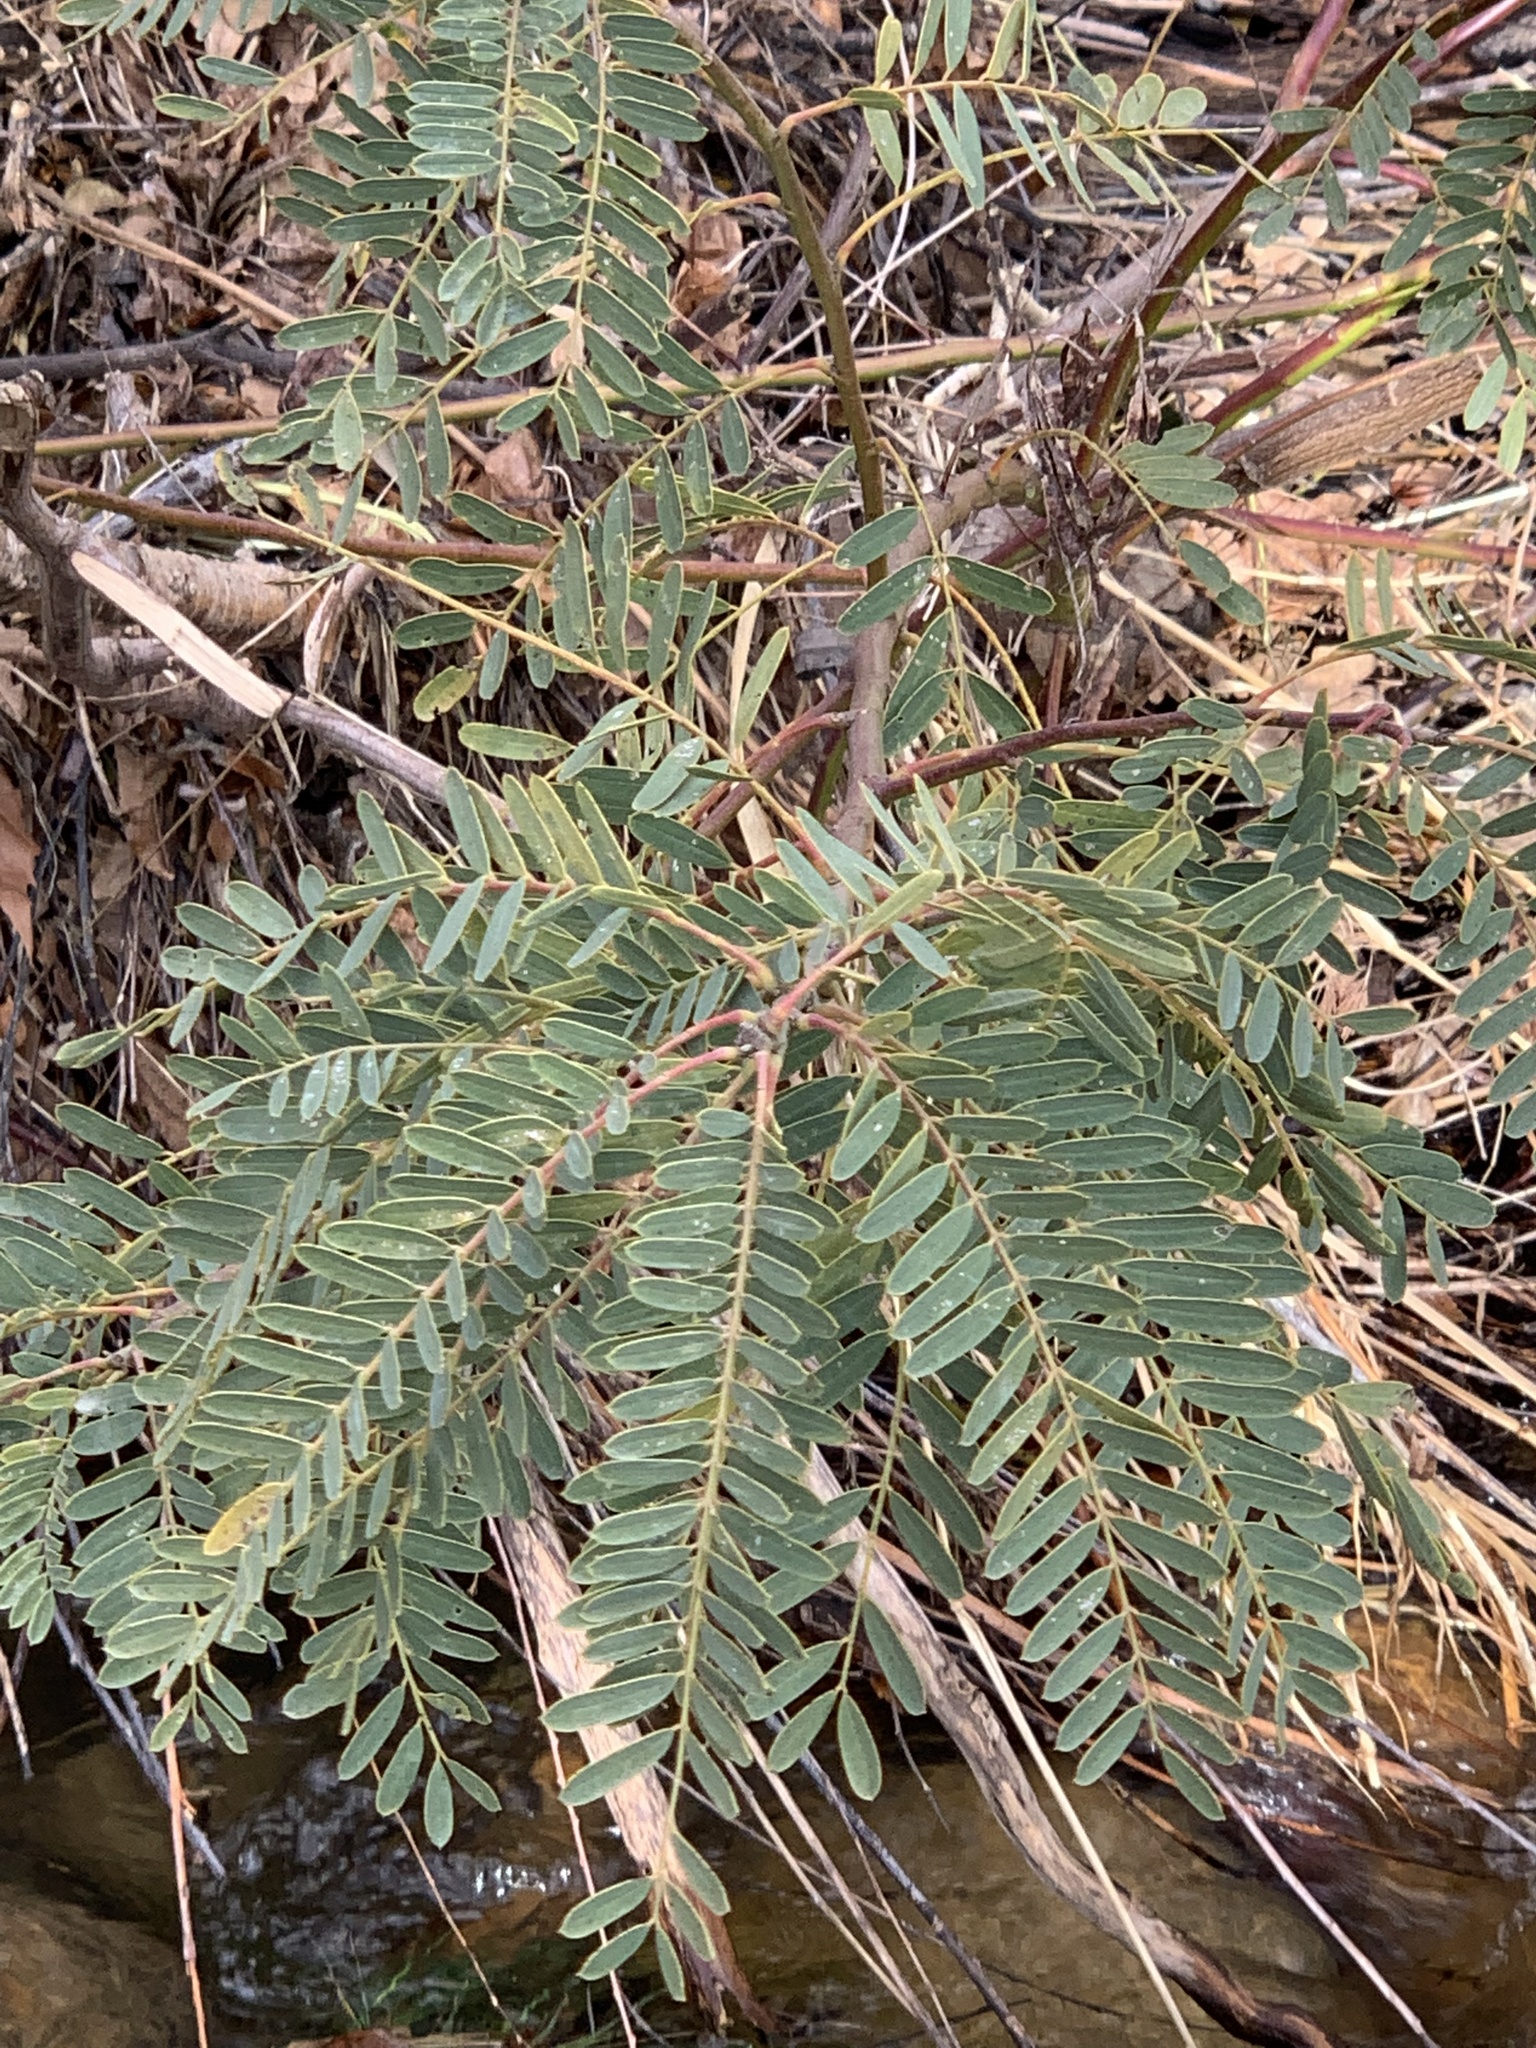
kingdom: Plantae
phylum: Tracheophyta
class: Magnoliopsida
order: Fabales
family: Fabaceae
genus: Sesbania
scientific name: Sesbania punicea
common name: Rattlebox
